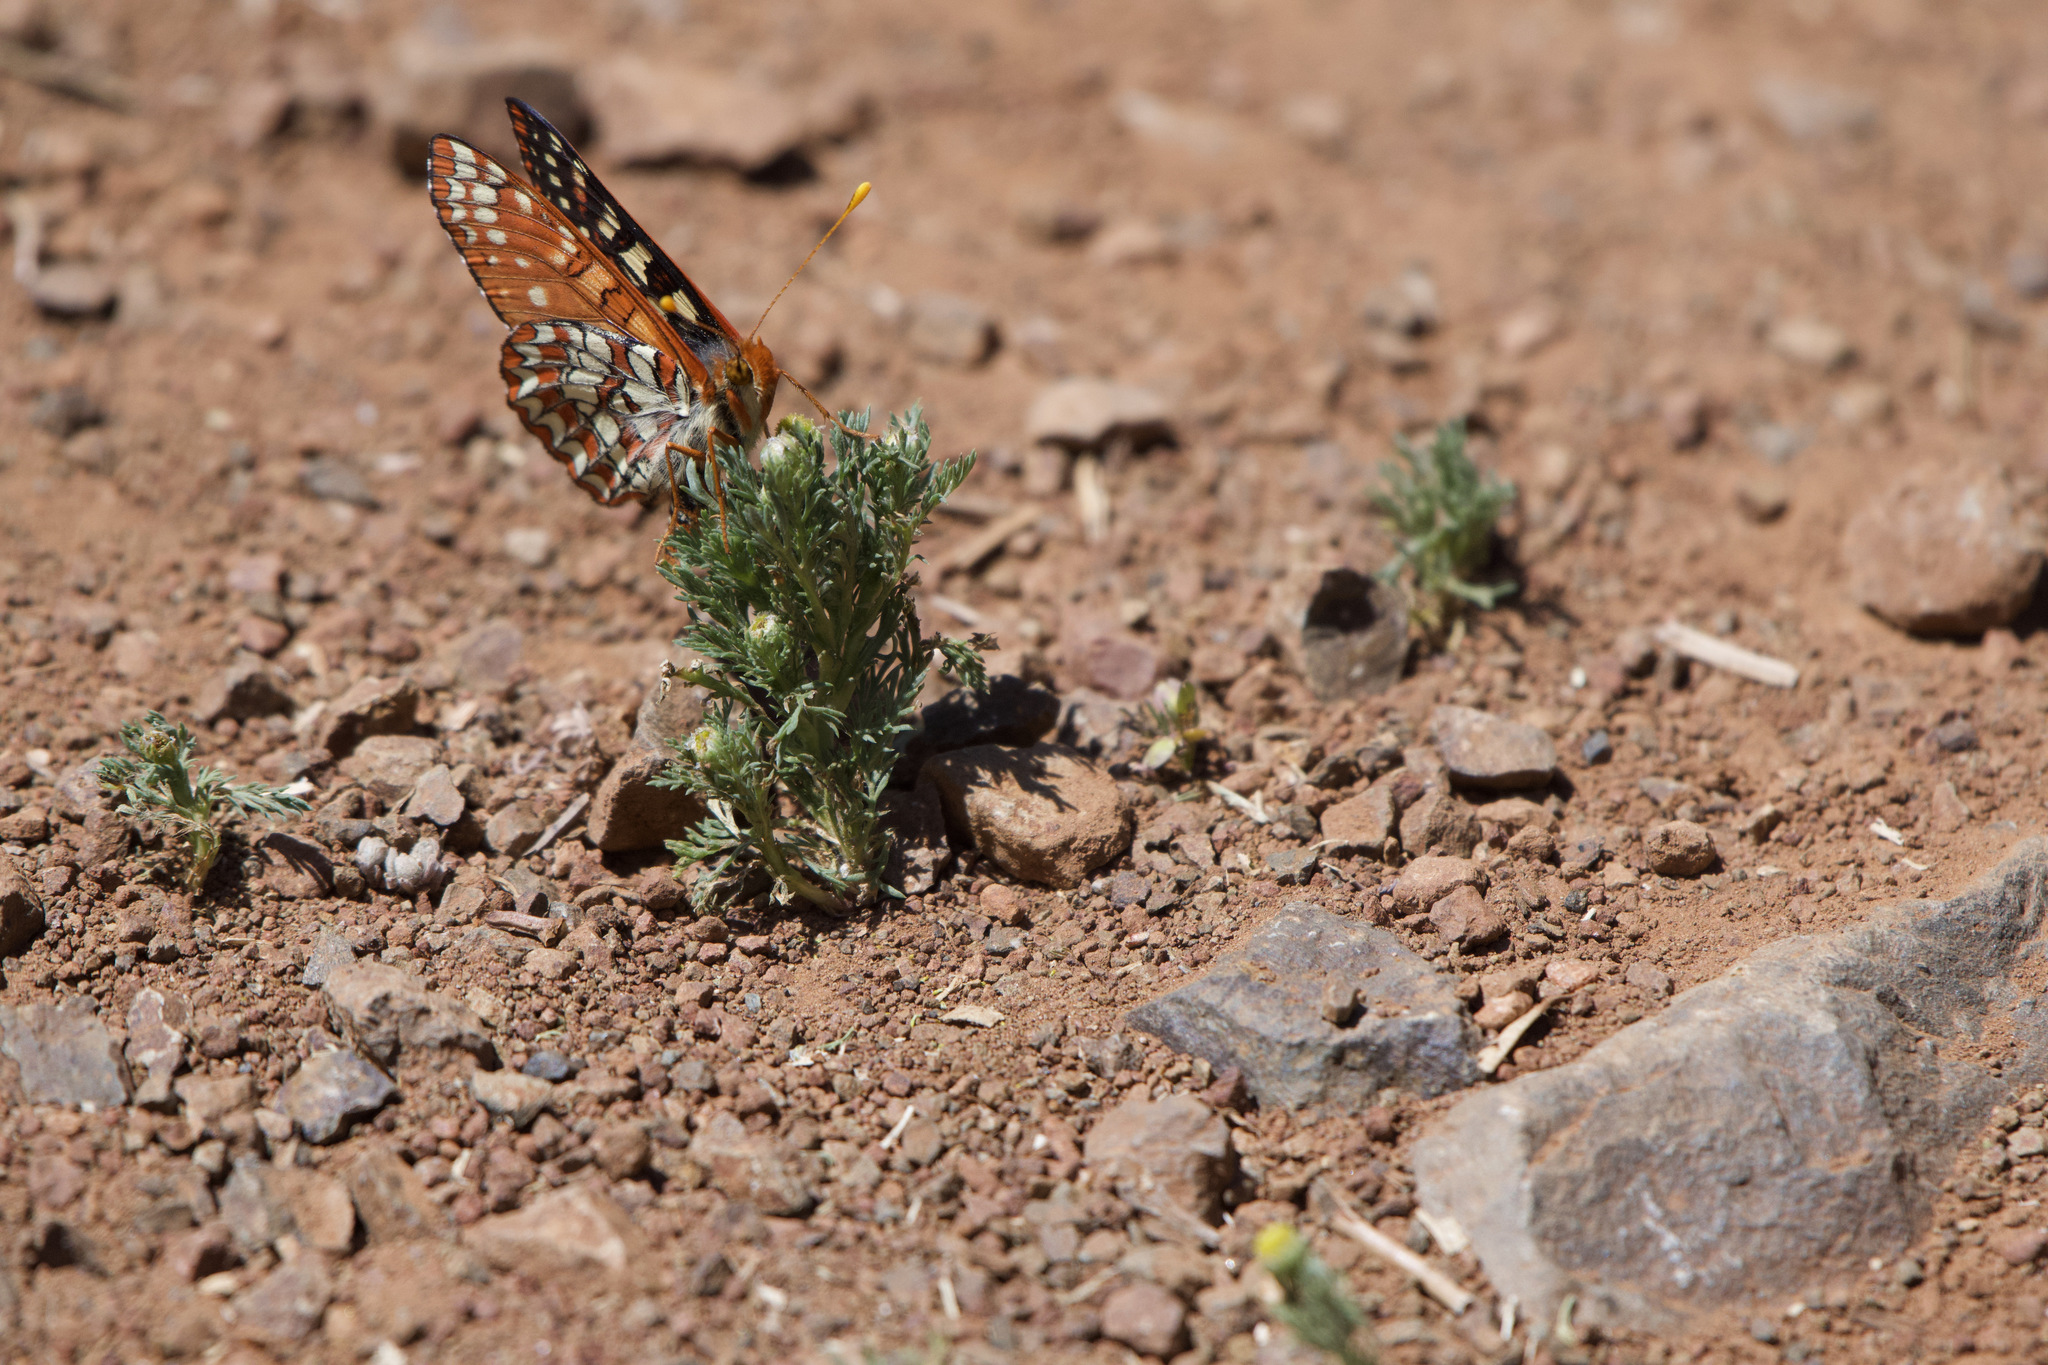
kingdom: Animalia
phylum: Arthropoda
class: Insecta
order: Lepidoptera
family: Nymphalidae
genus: Occidryas
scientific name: Occidryas chalcedona
